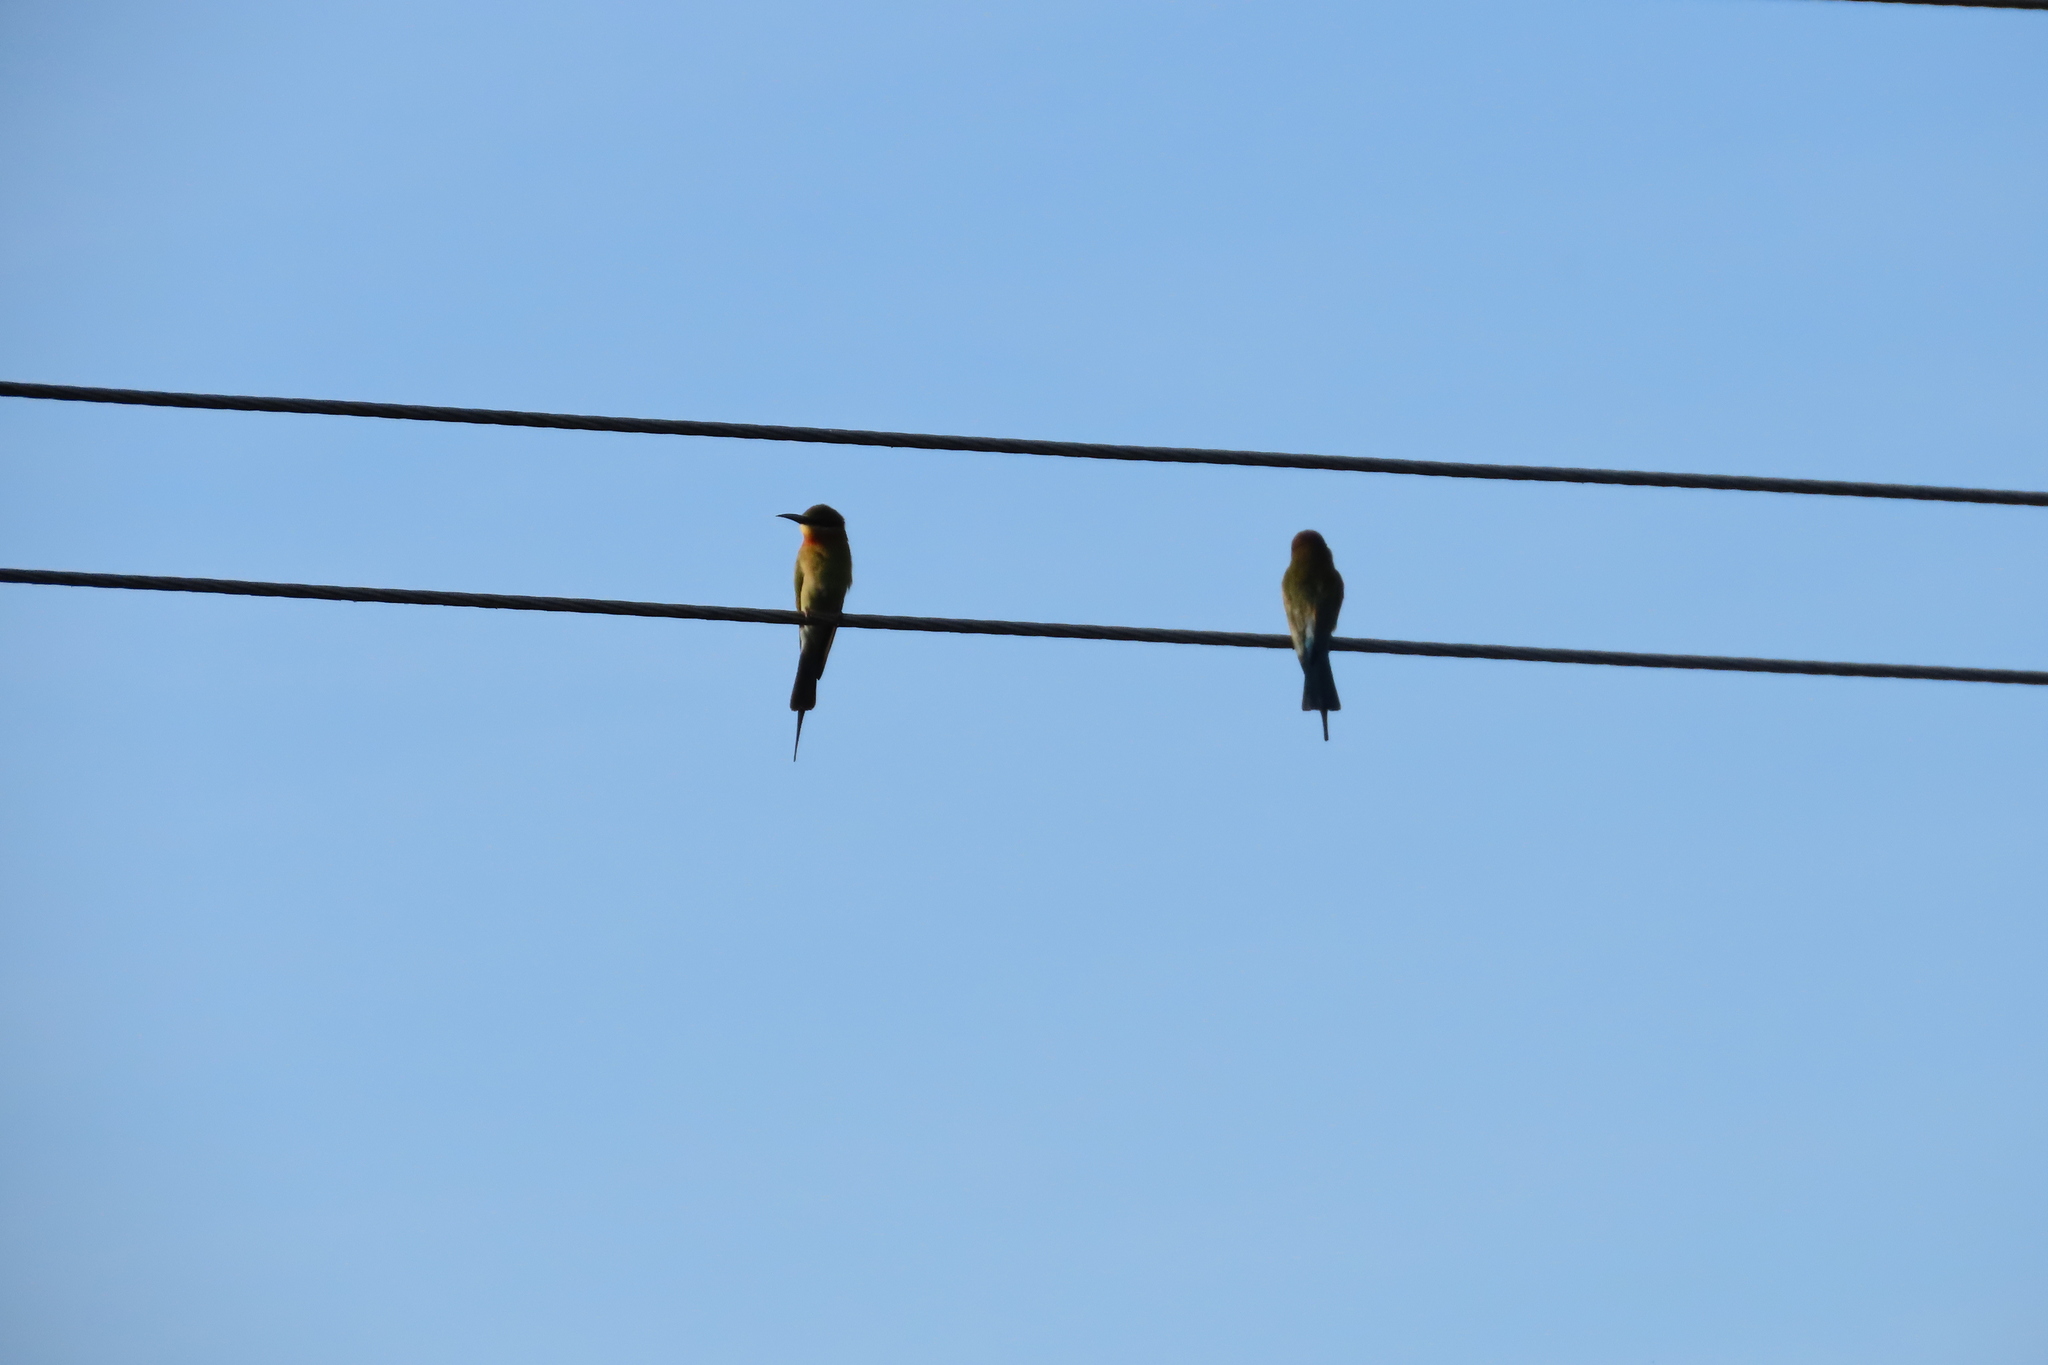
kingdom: Animalia
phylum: Chordata
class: Aves
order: Coraciiformes
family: Meropidae
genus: Merops
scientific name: Merops philippinus
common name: Blue-tailed bee-eater
